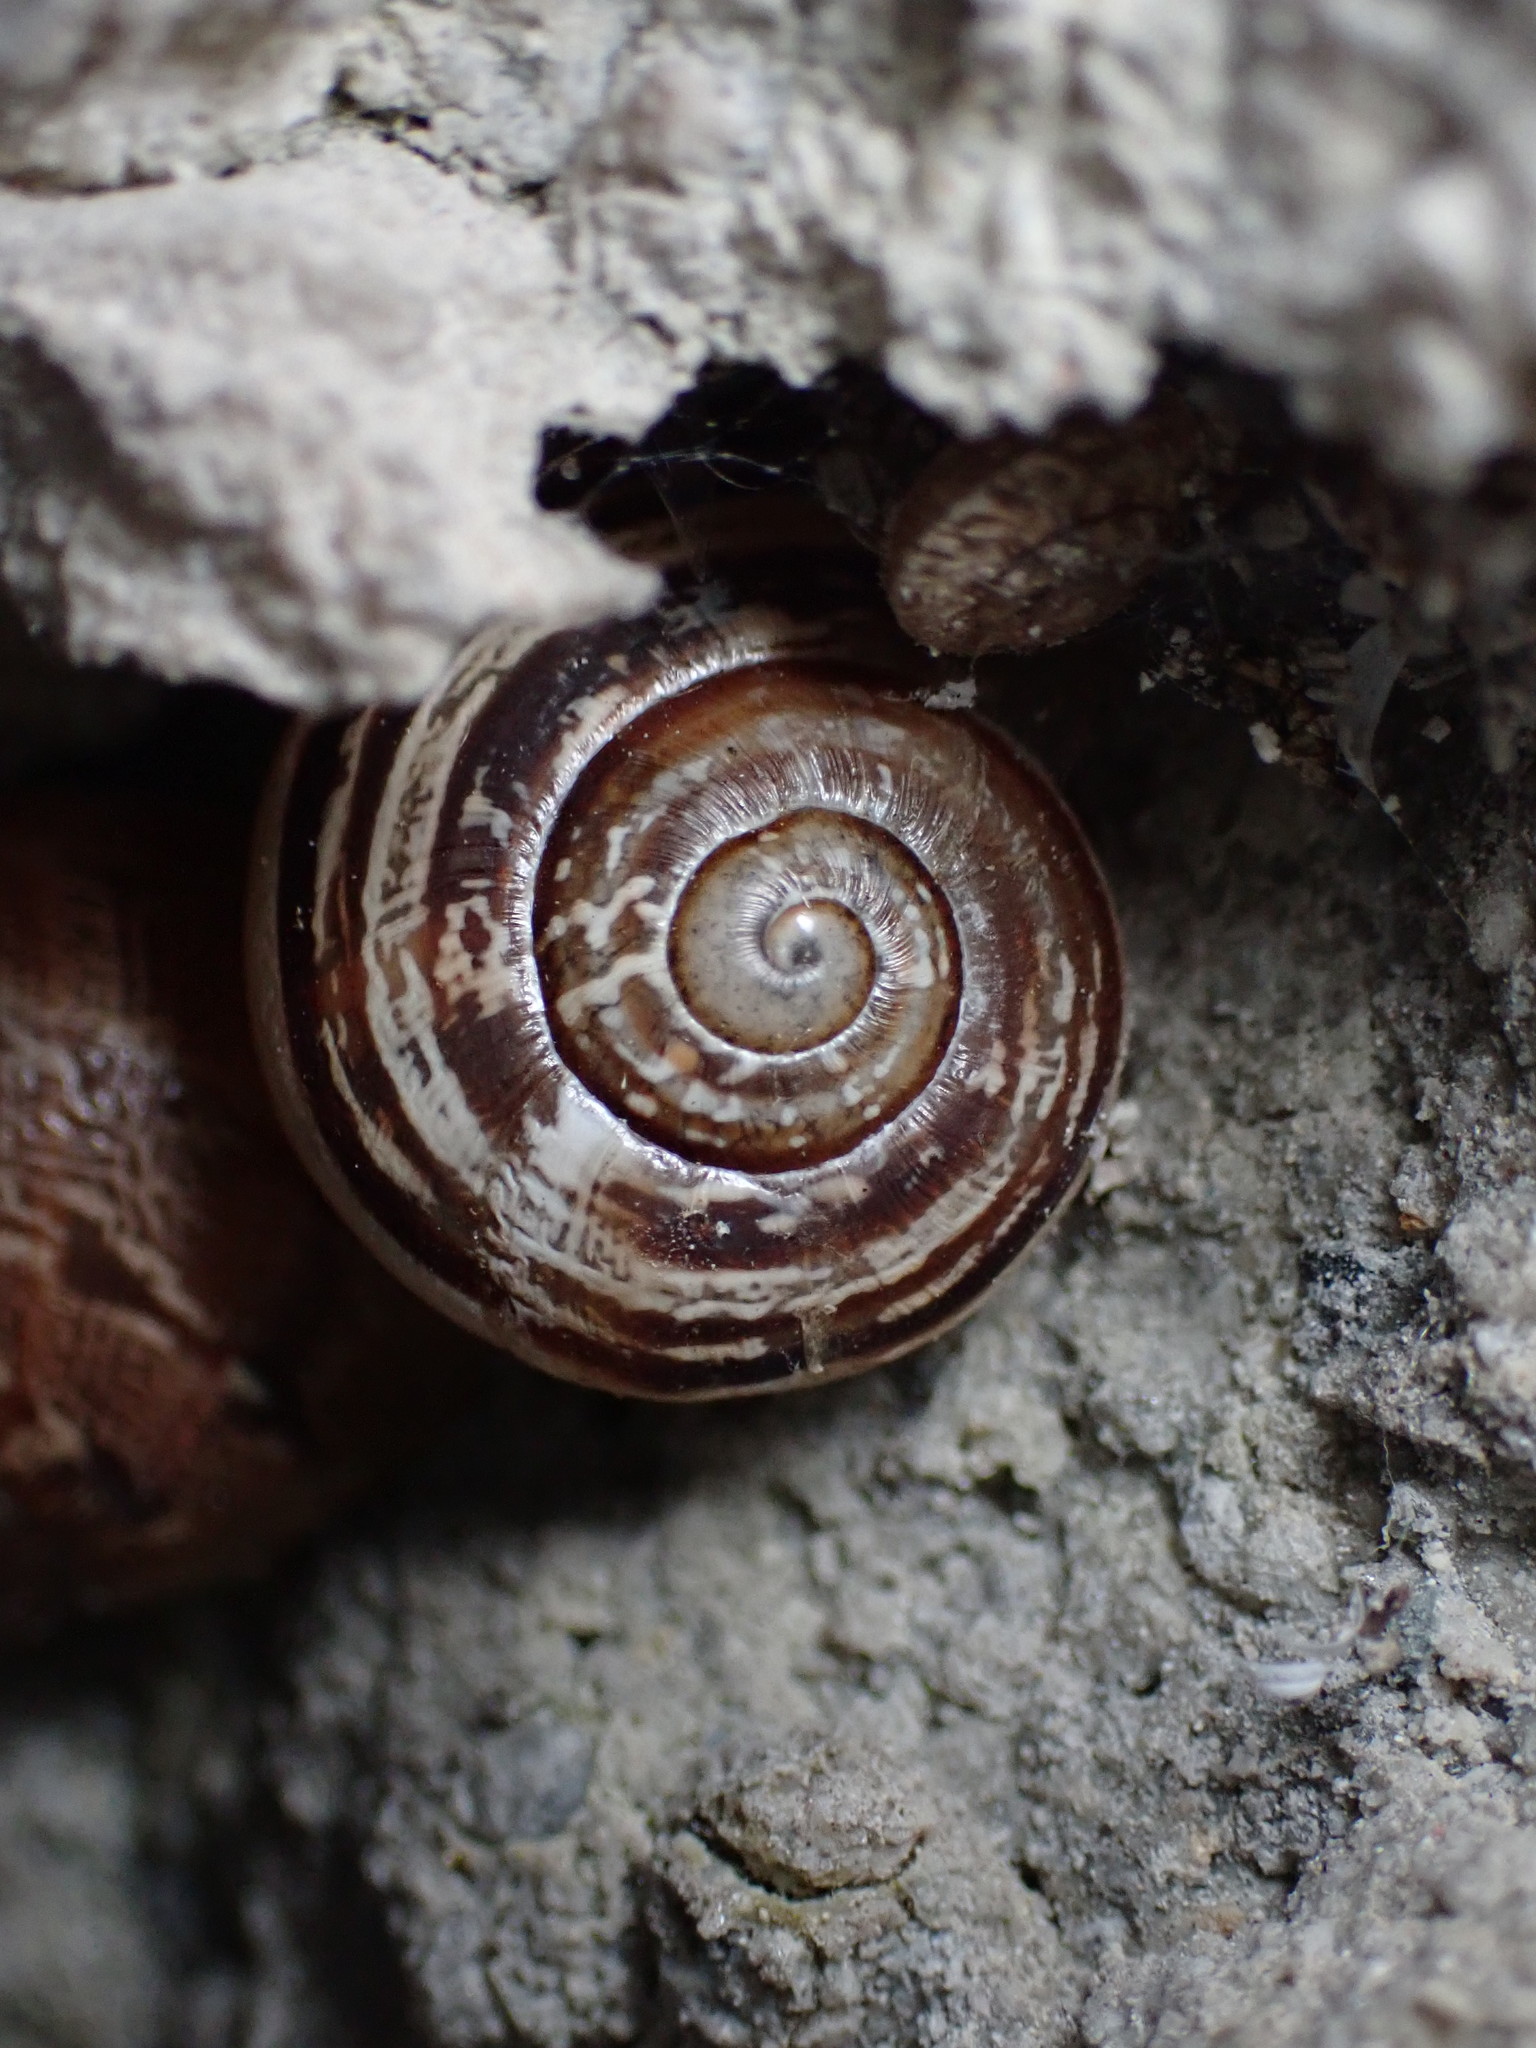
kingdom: Animalia
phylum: Mollusca
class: Gastropoda
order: Stylommatophora
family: Helicidae
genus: Eobania
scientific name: Eobania vermiculata
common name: Chocolateband snail
